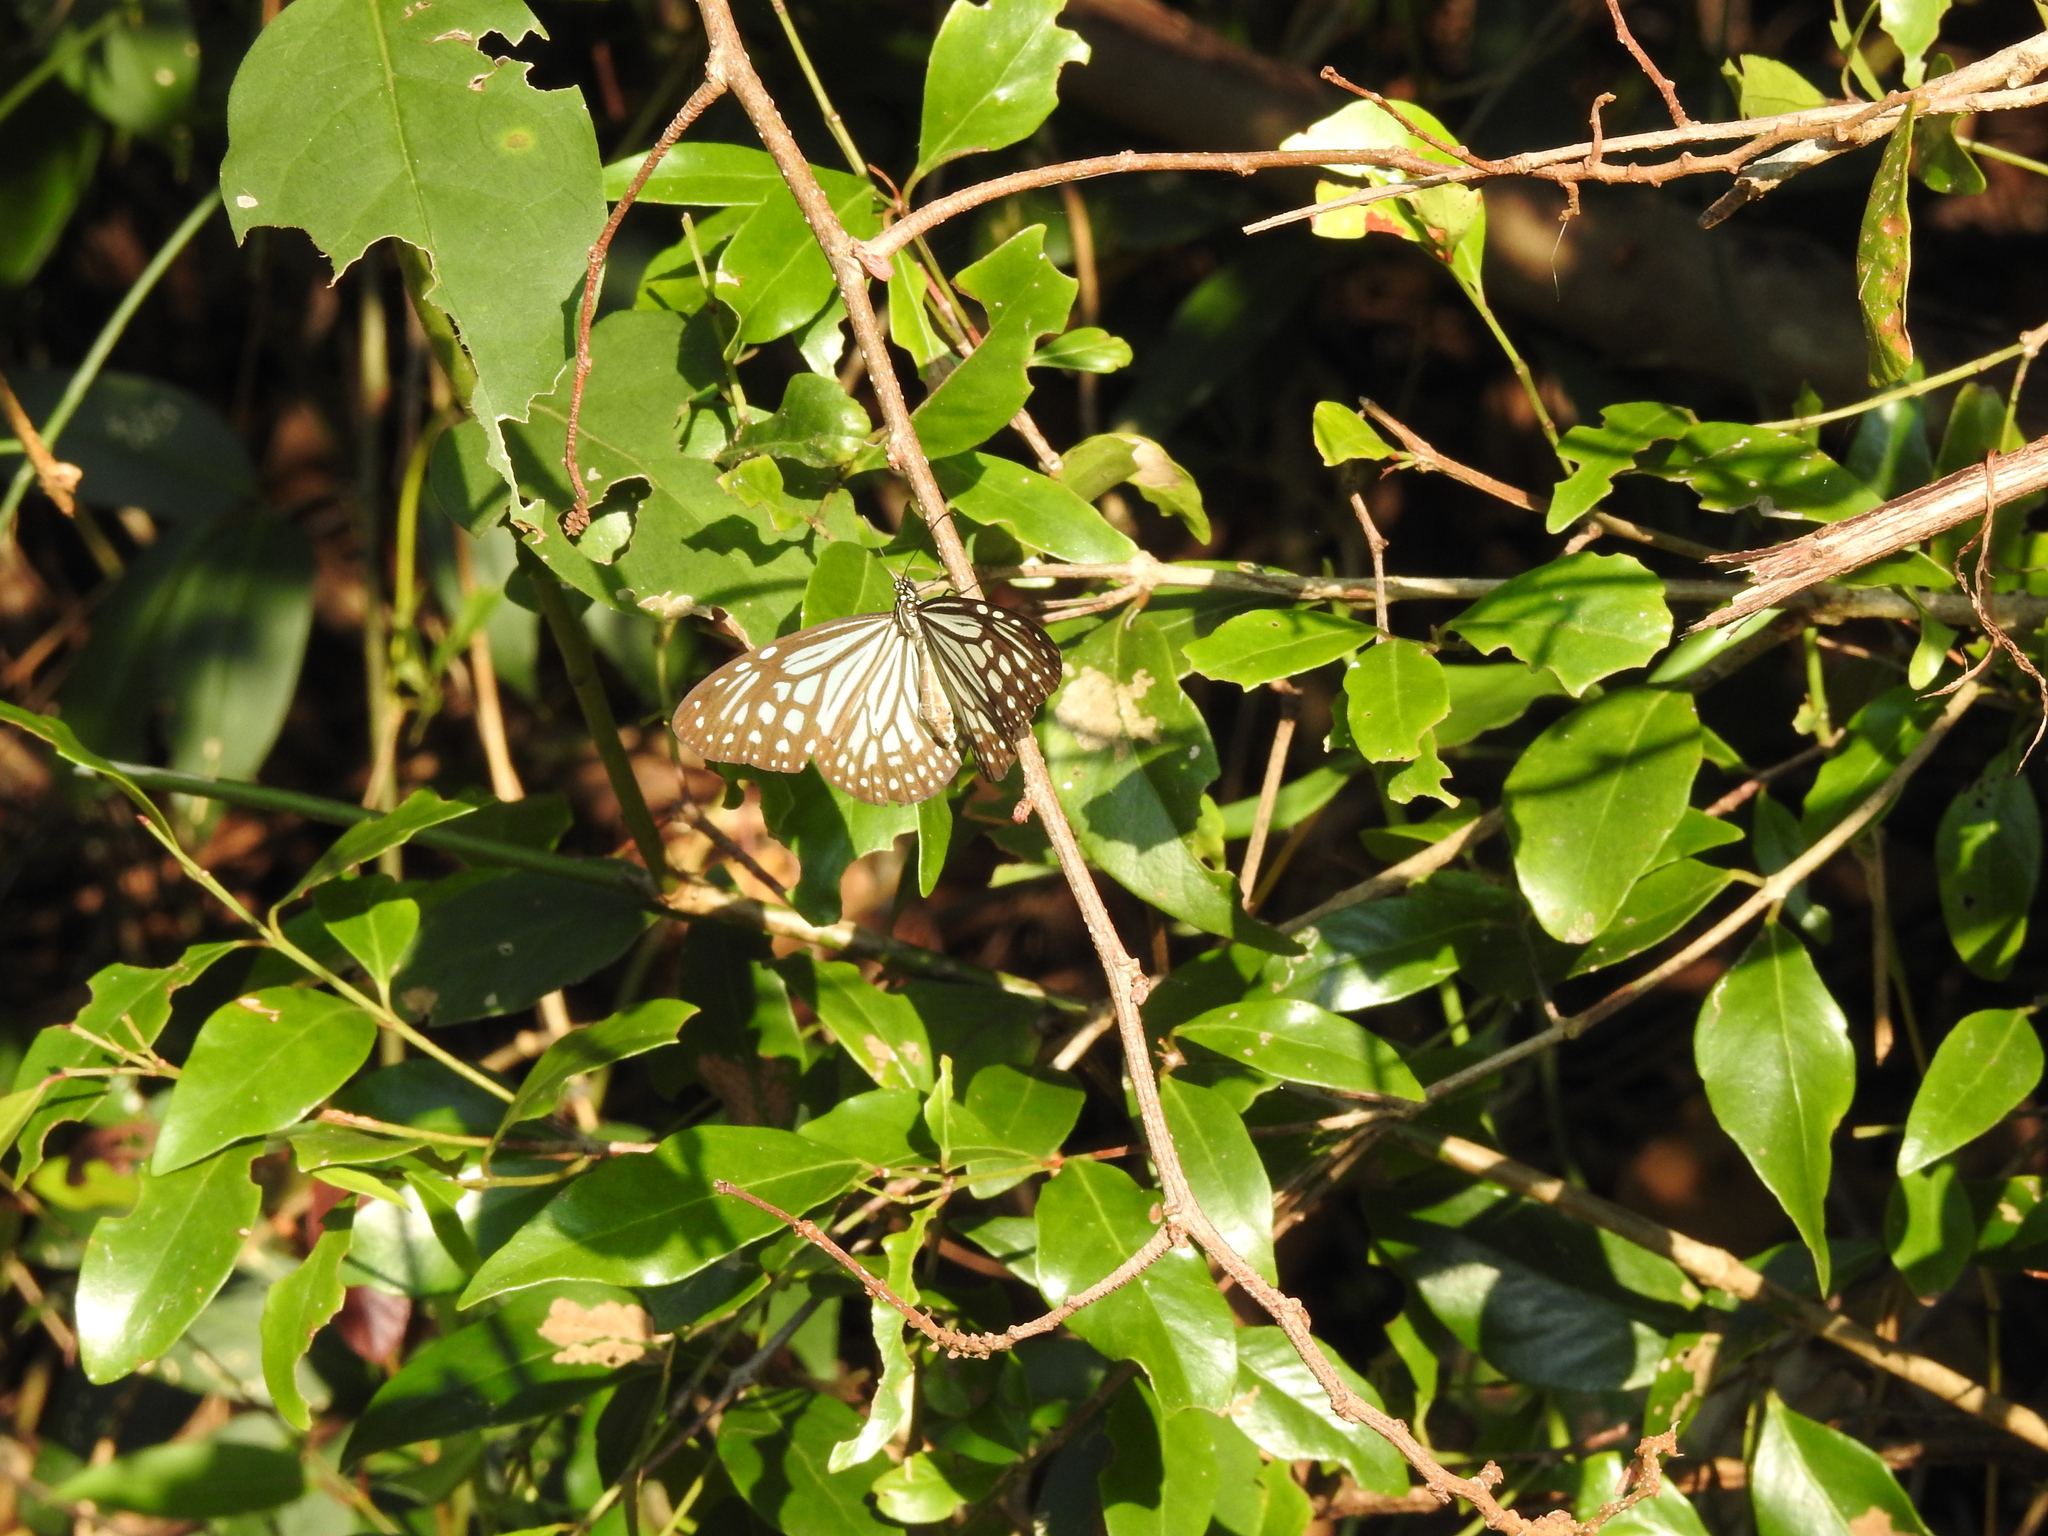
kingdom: Animalia
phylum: Arthropoda
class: Insecta
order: Lepidoptera
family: Nymphalidae
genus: Parantica
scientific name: Parantica aglea
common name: Glassy tiger
